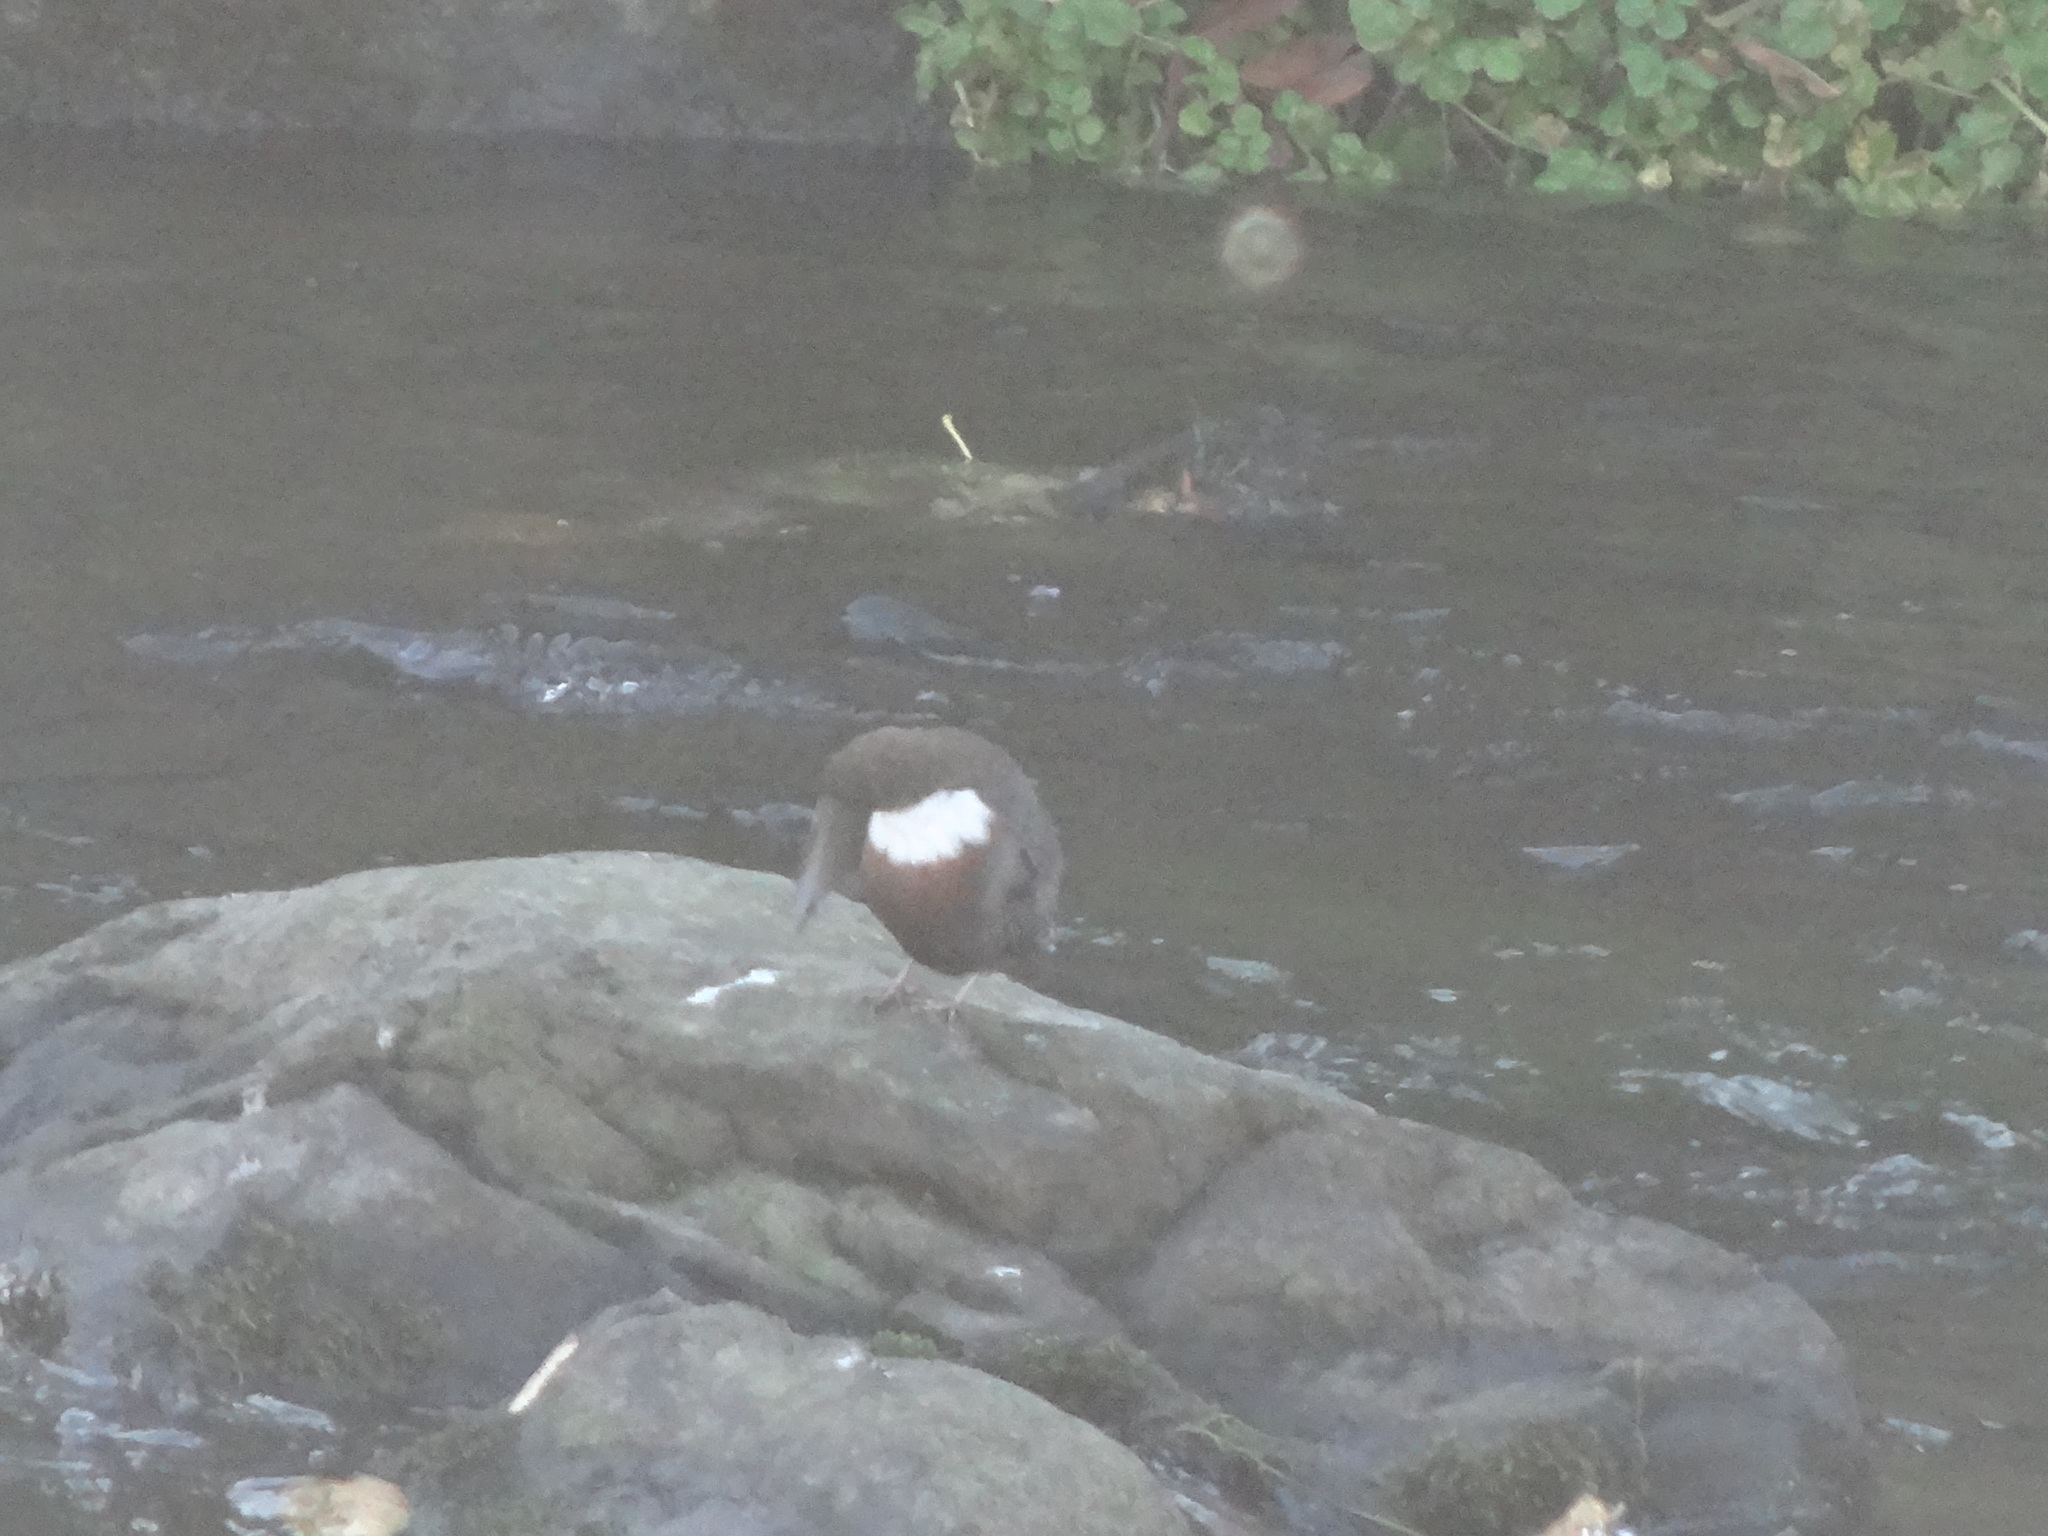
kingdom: Animalia
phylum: Chordata
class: Aves
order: Passeriformes
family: Cinclidae
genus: Cinclus
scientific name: Cinclus cinclus
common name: White-throated dipper
